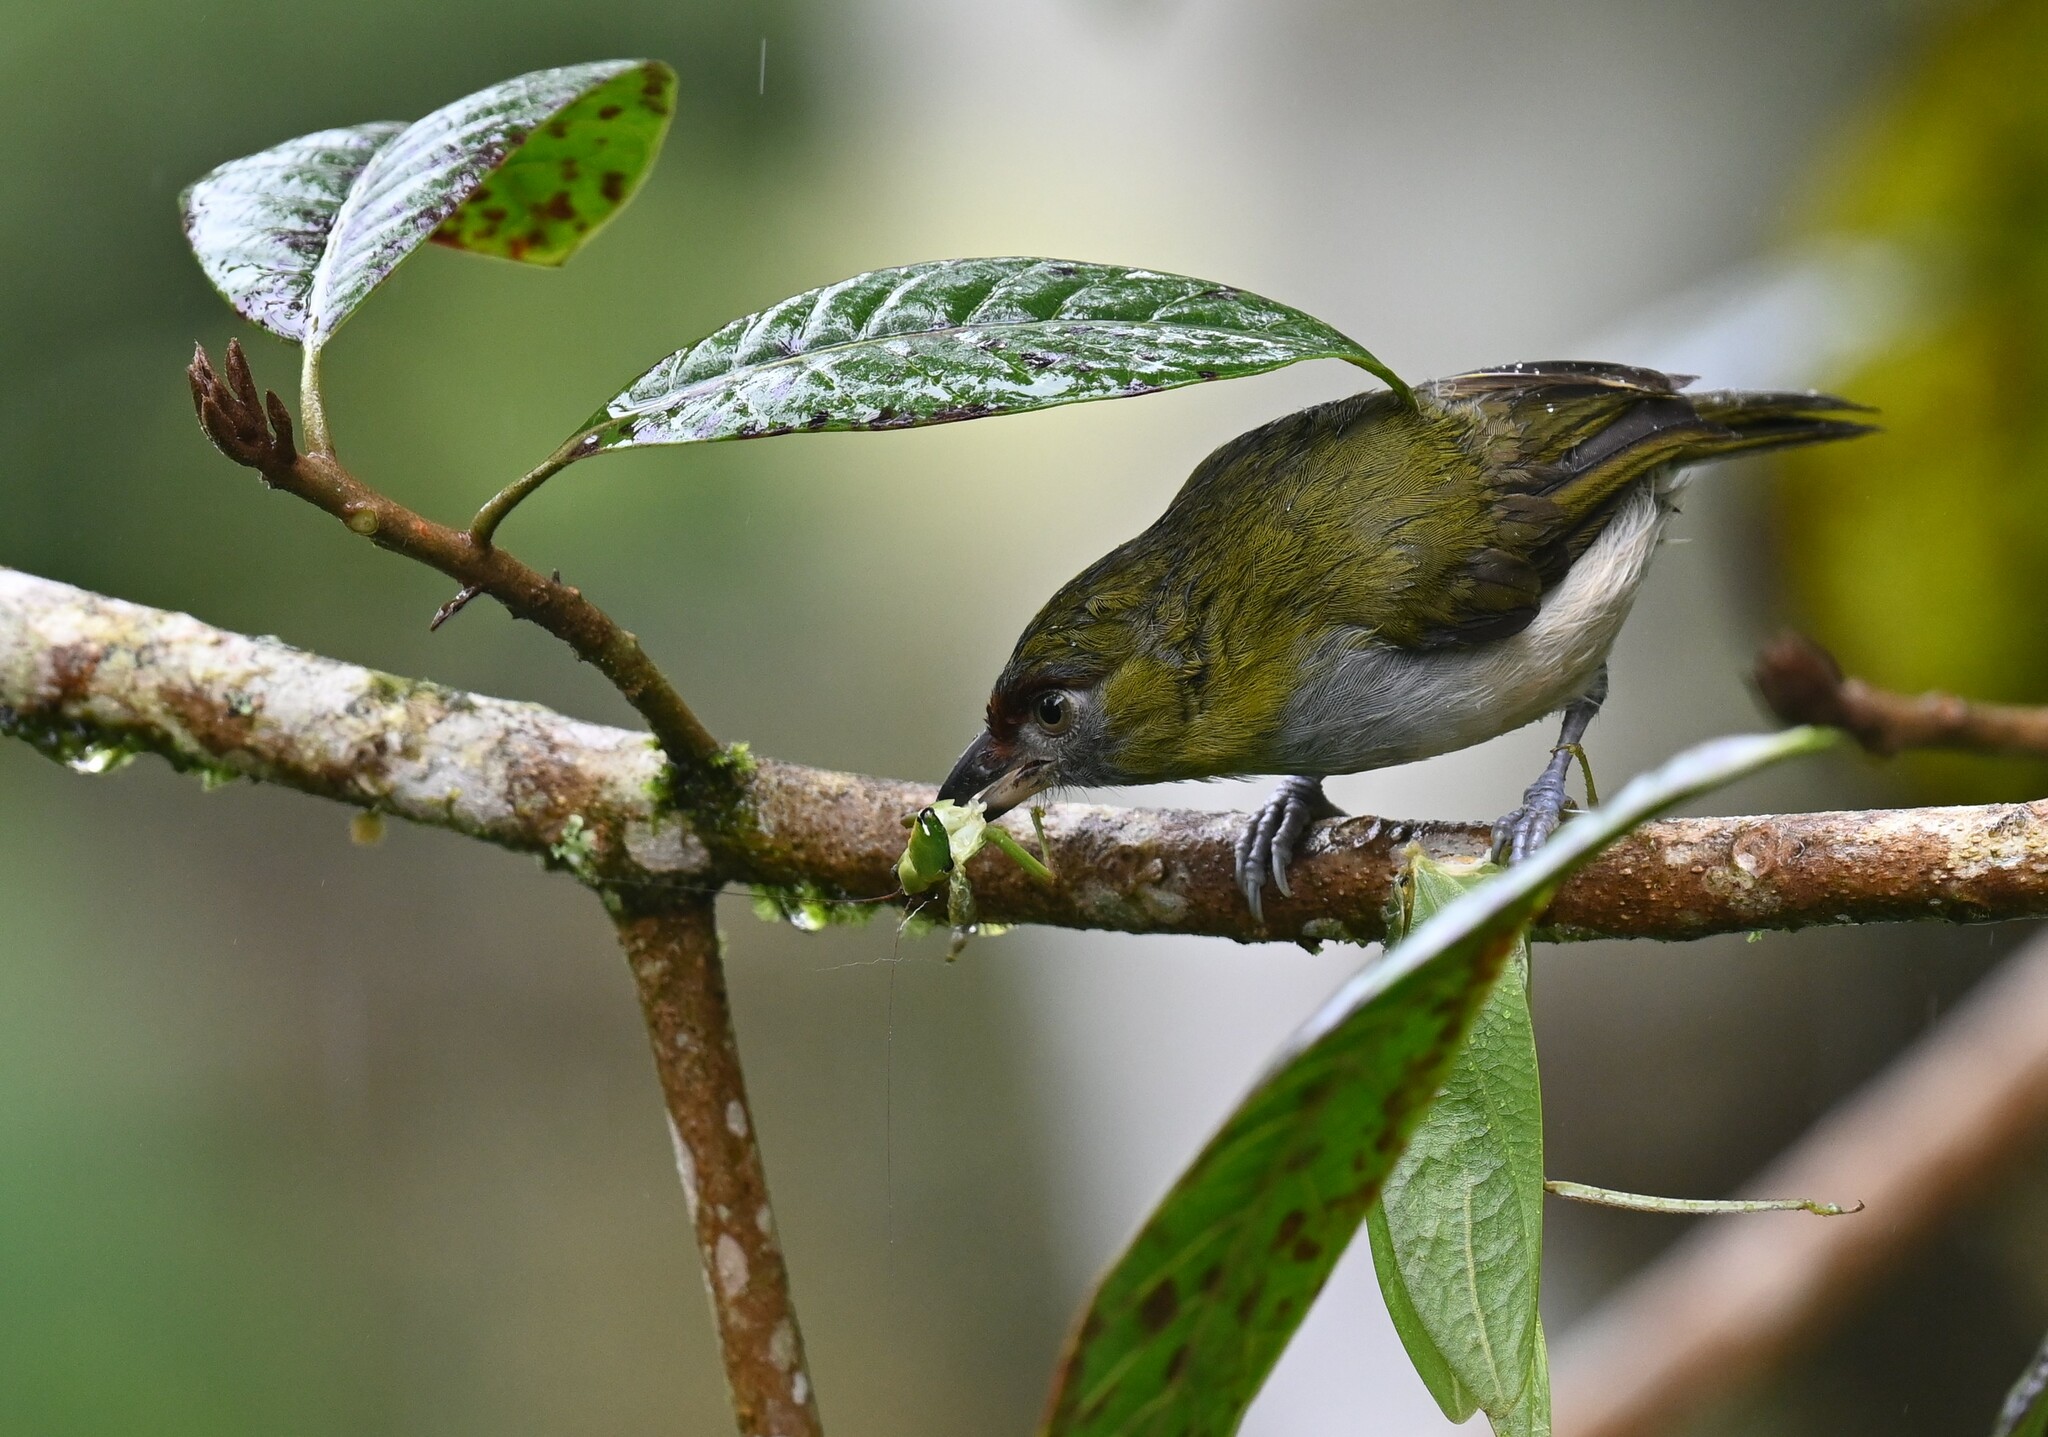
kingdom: Animalia
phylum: Chordata
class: Aves
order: Passeriformes
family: Vireonidae
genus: Cyclarhis
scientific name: Cyclarhis nigrirostris
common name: Black-billed peppershrike
